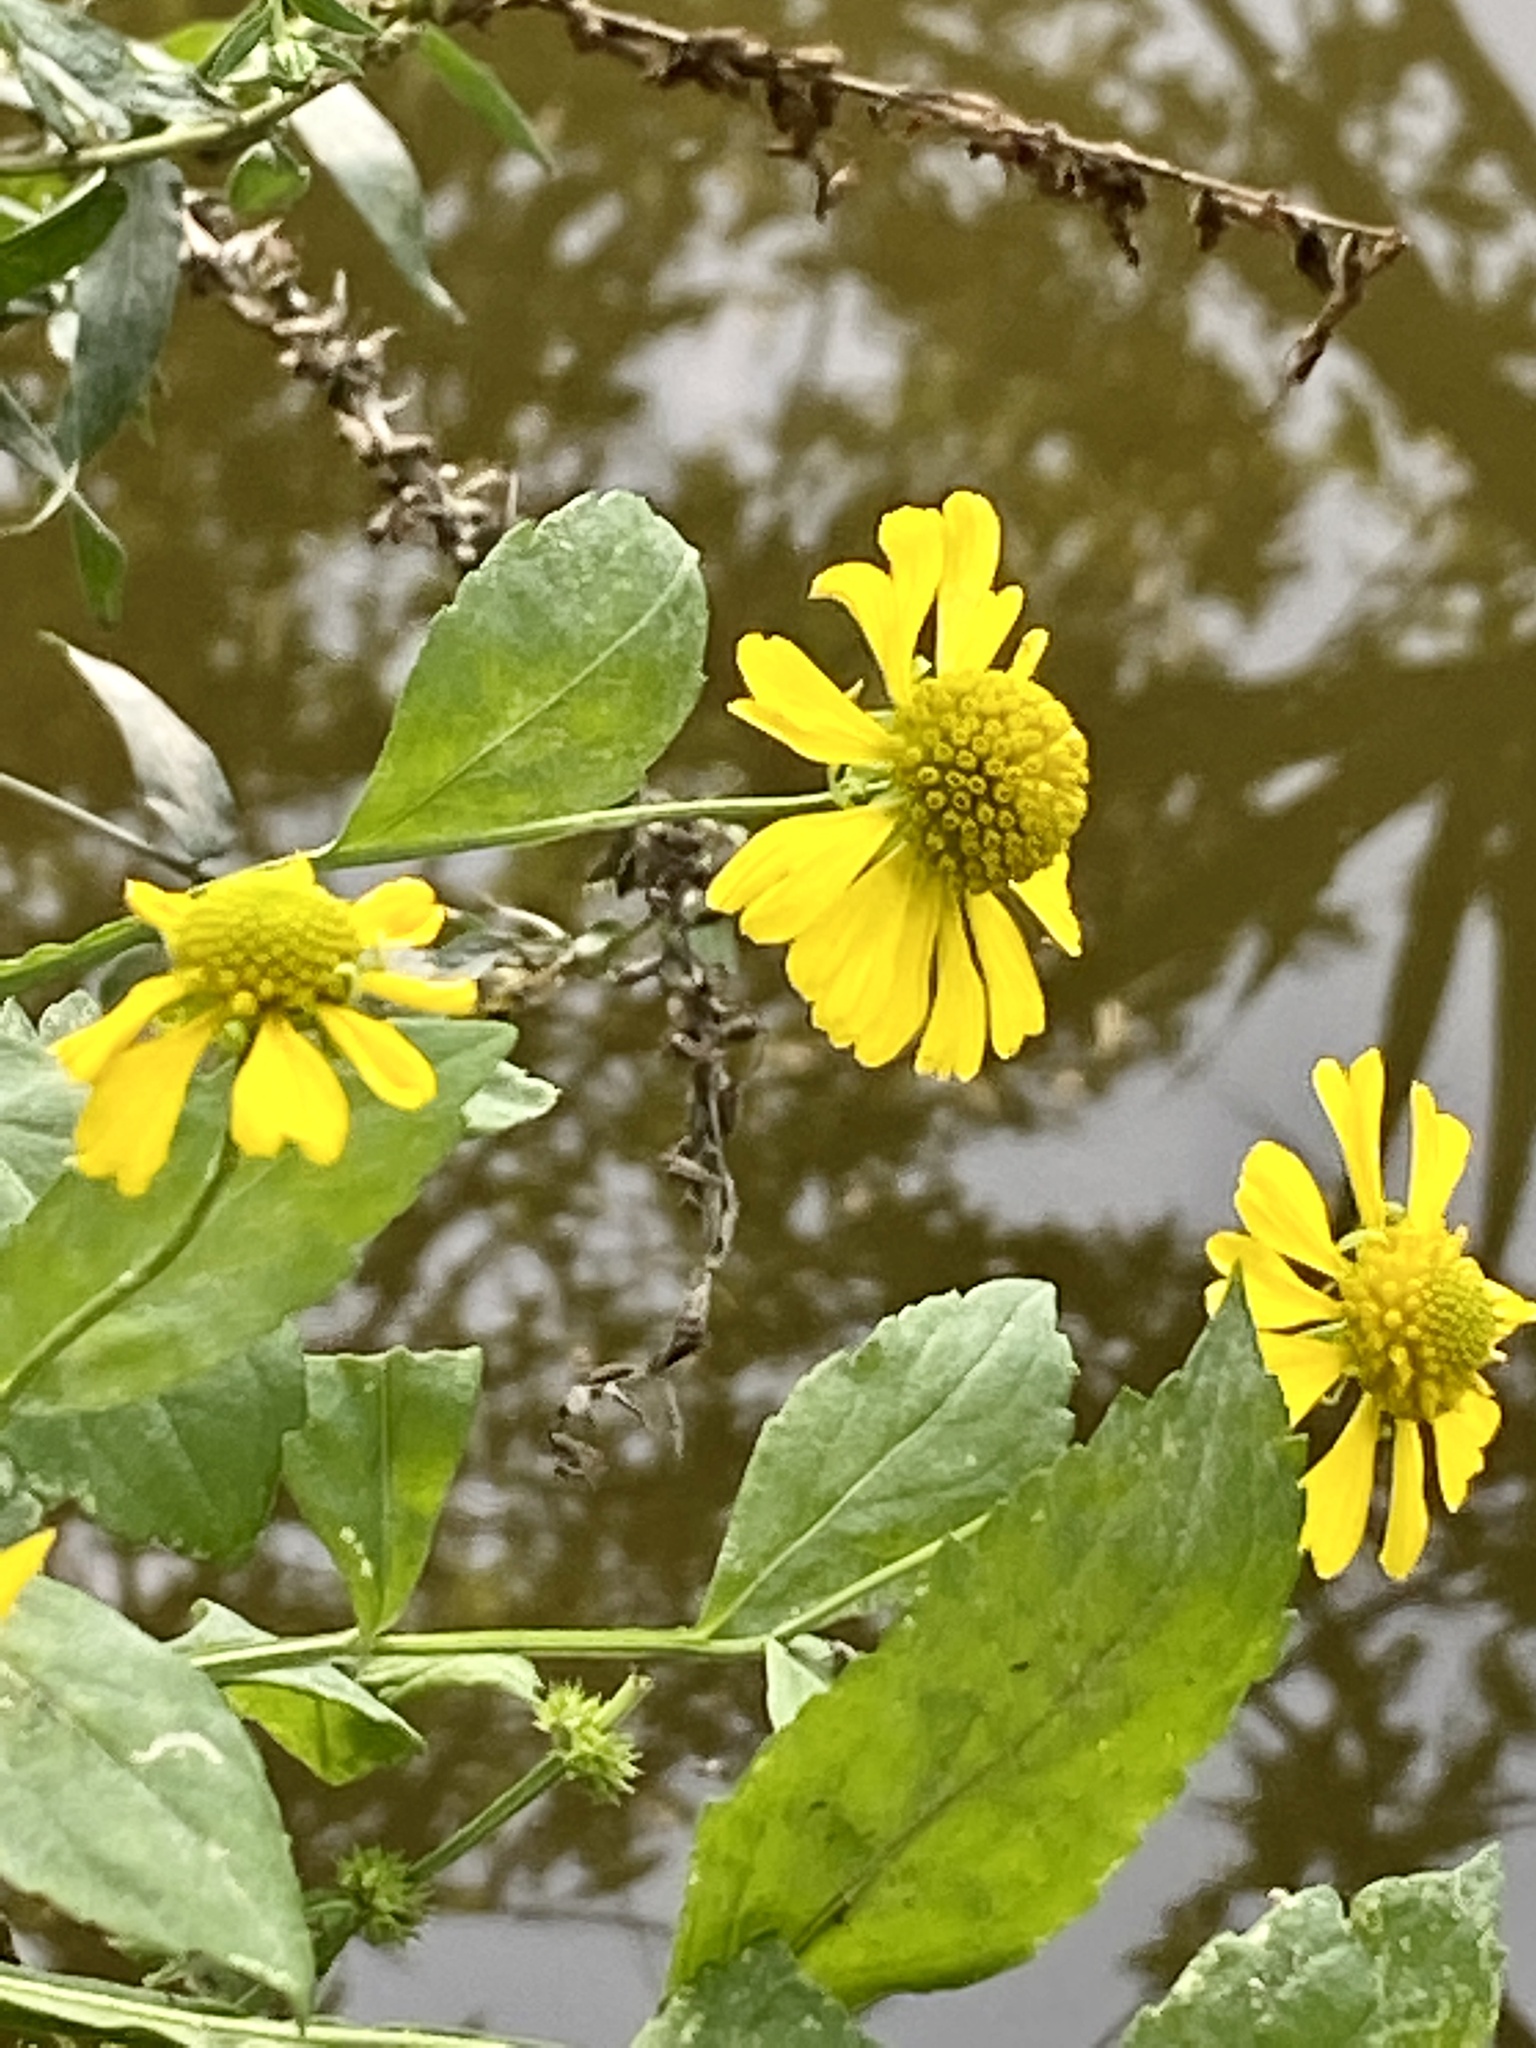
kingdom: Plantae
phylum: Tracheophyta
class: Magnoliopsida
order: Asterales
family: Asteraceae
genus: Helenium
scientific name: Helenium autumnale
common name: Sneezeweed
